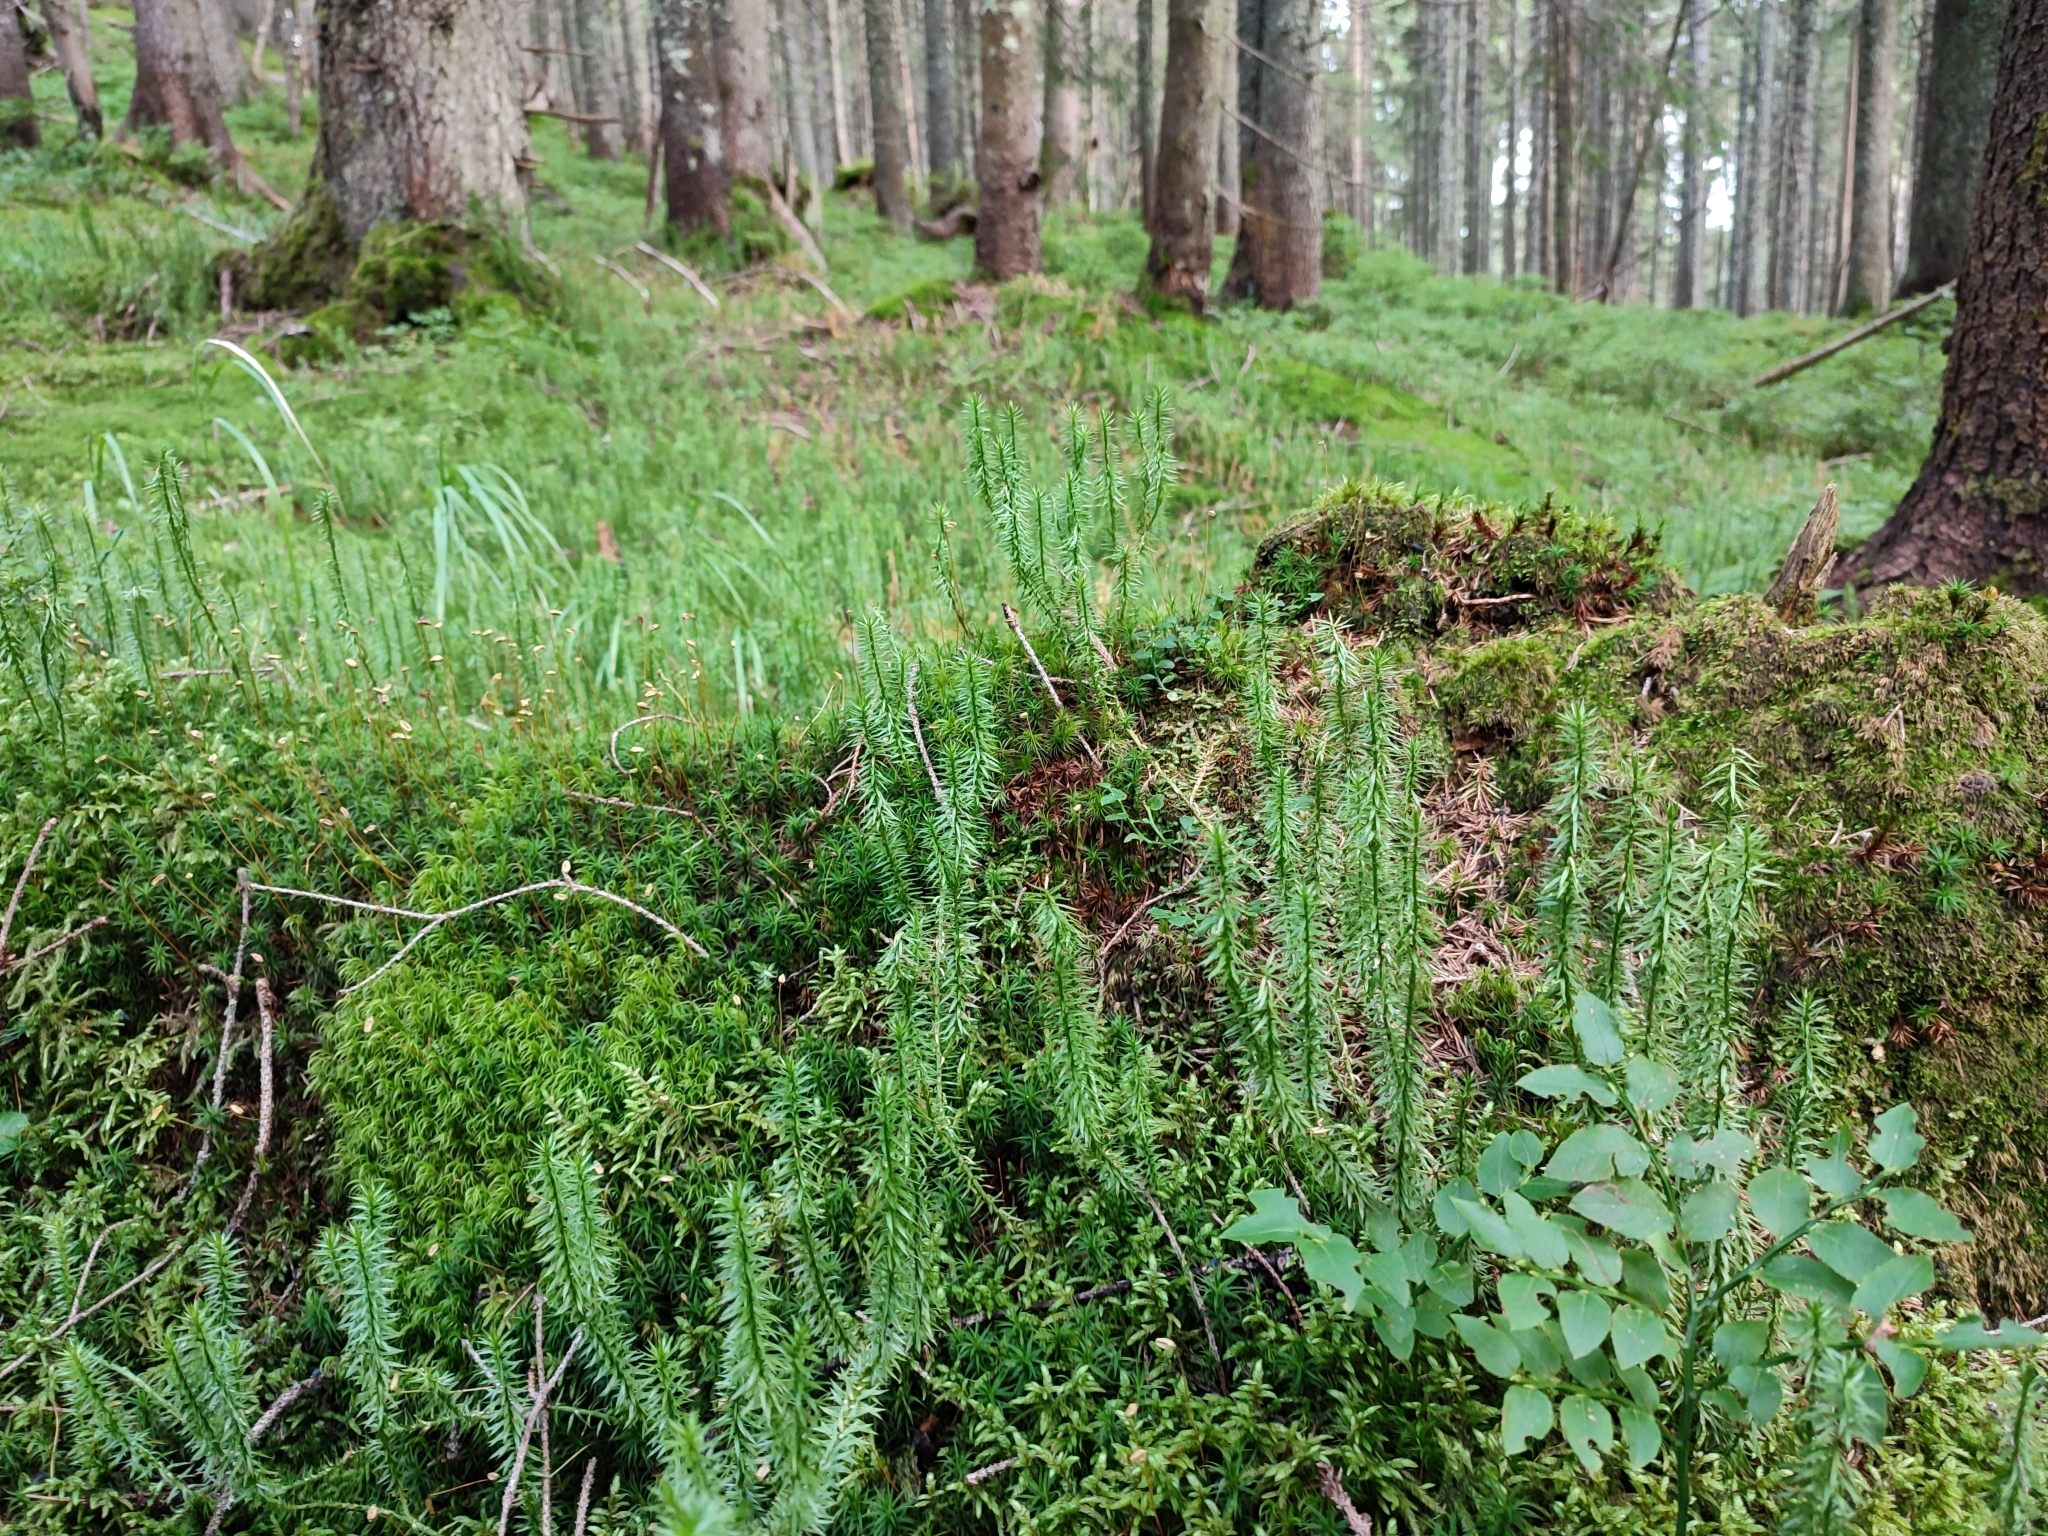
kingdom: Plantae
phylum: Tracheophyta
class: Lycopodiopsida
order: Lycopodiales
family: Lycopodiaceae
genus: Spinulum
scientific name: Spinulum annotinum
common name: Interrupted club-moss
